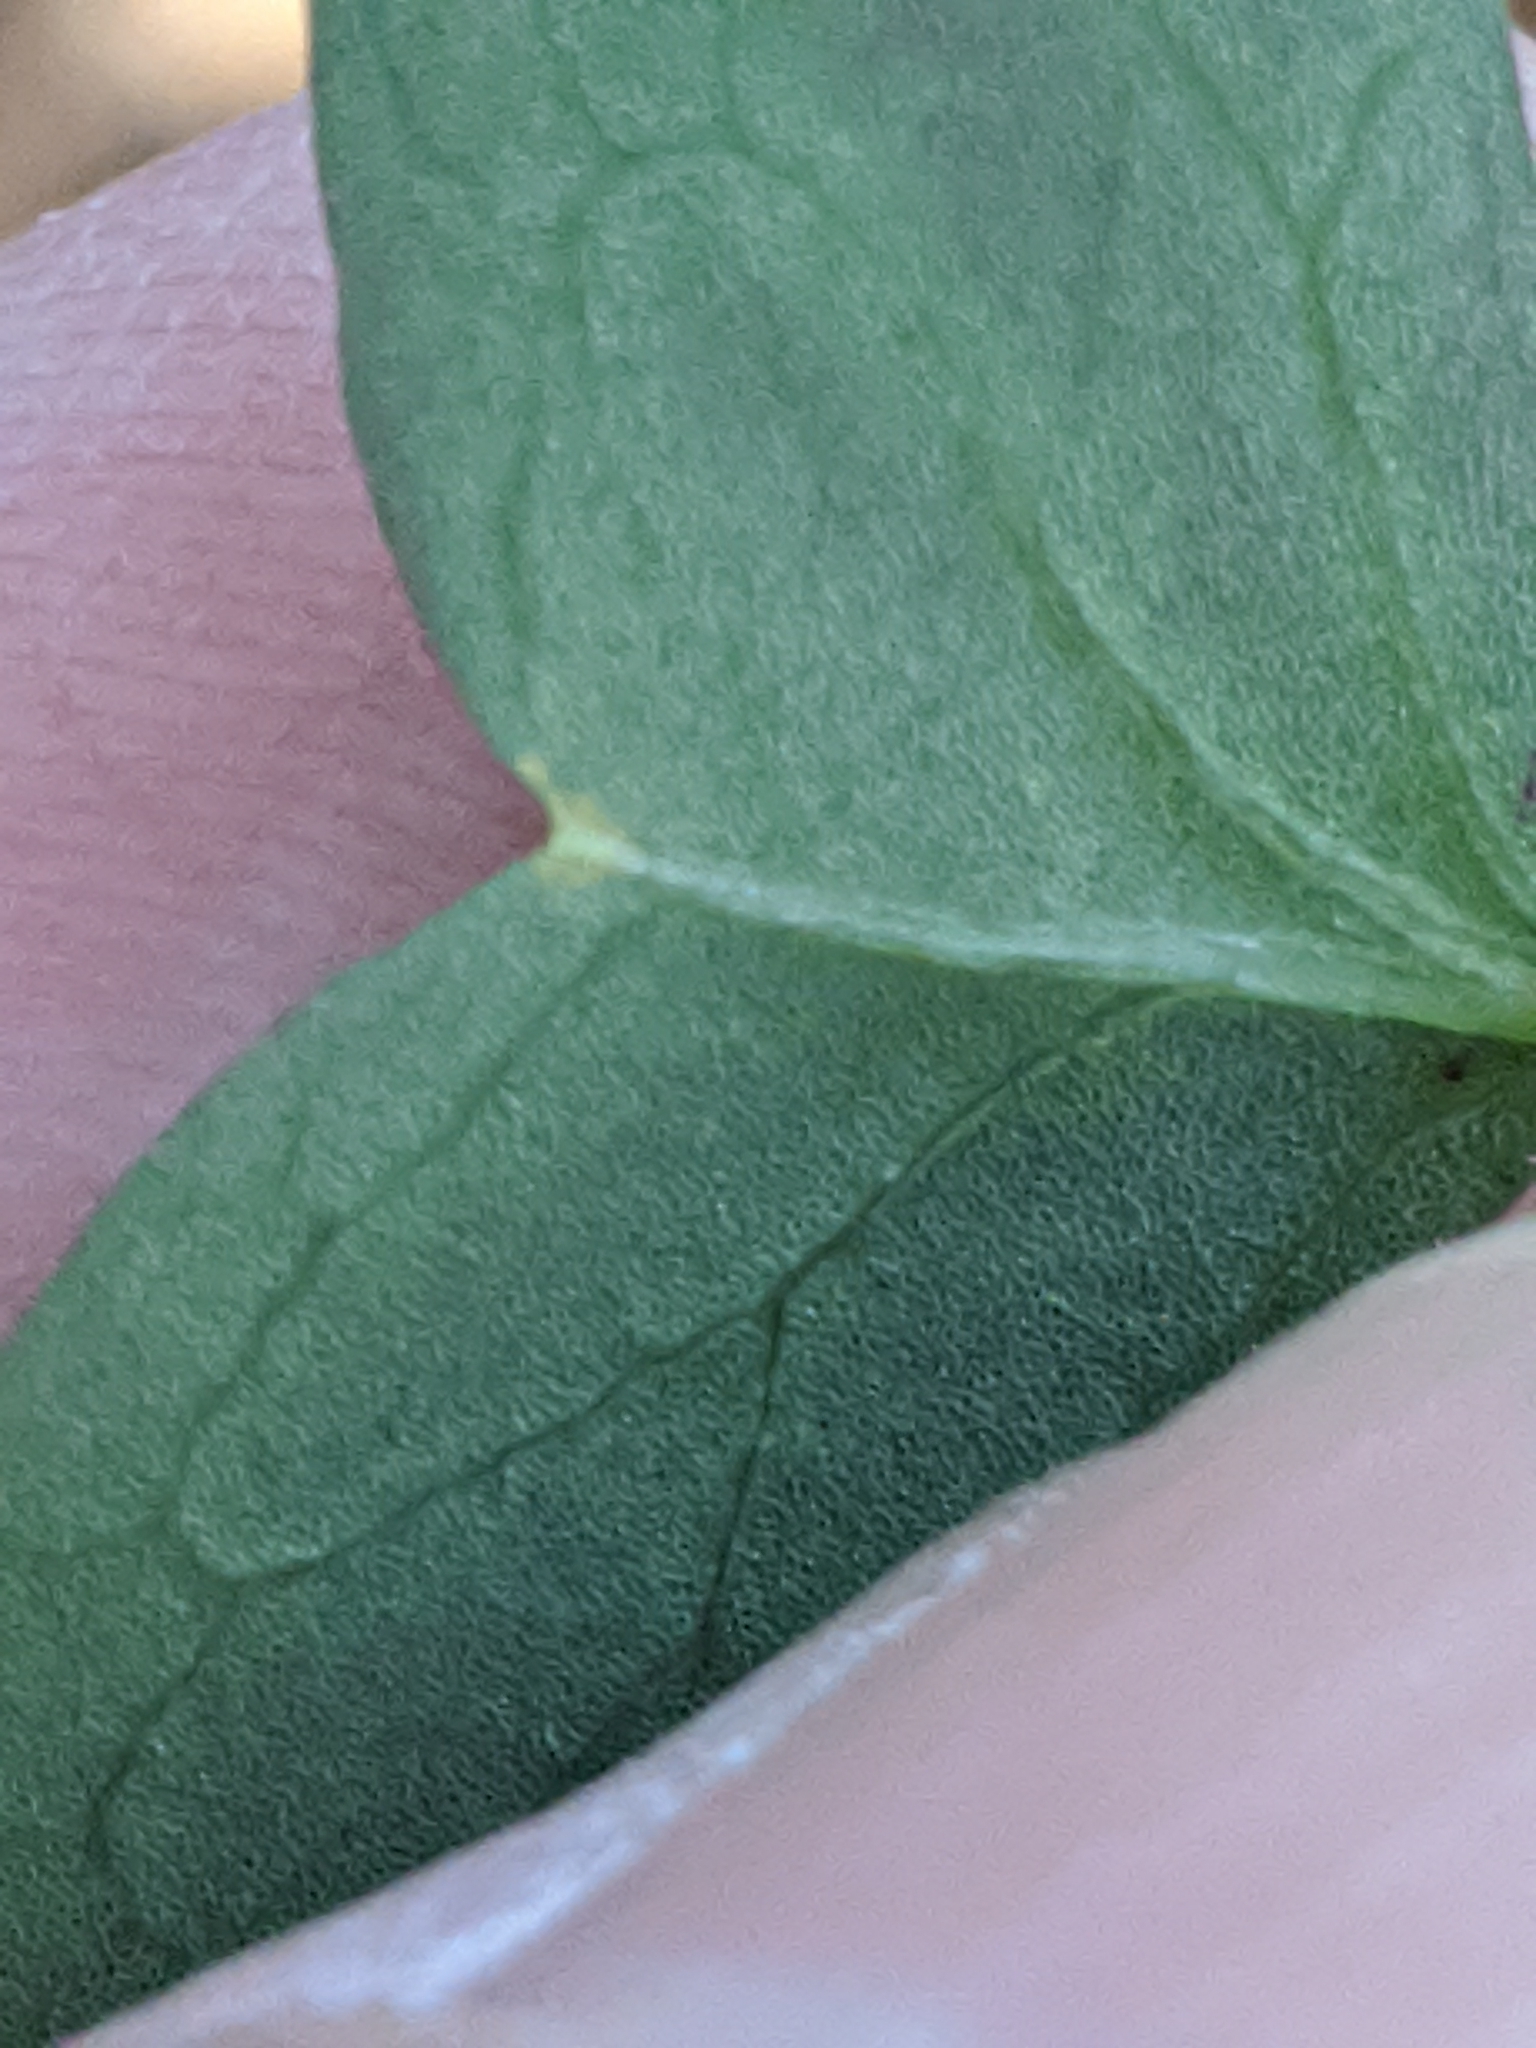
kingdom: Plantae
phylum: Tracheophyta
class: Magnoliopsida
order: Oxalidales
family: Oxalidaceae
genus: Oxalis
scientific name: Oxalis drummondii
